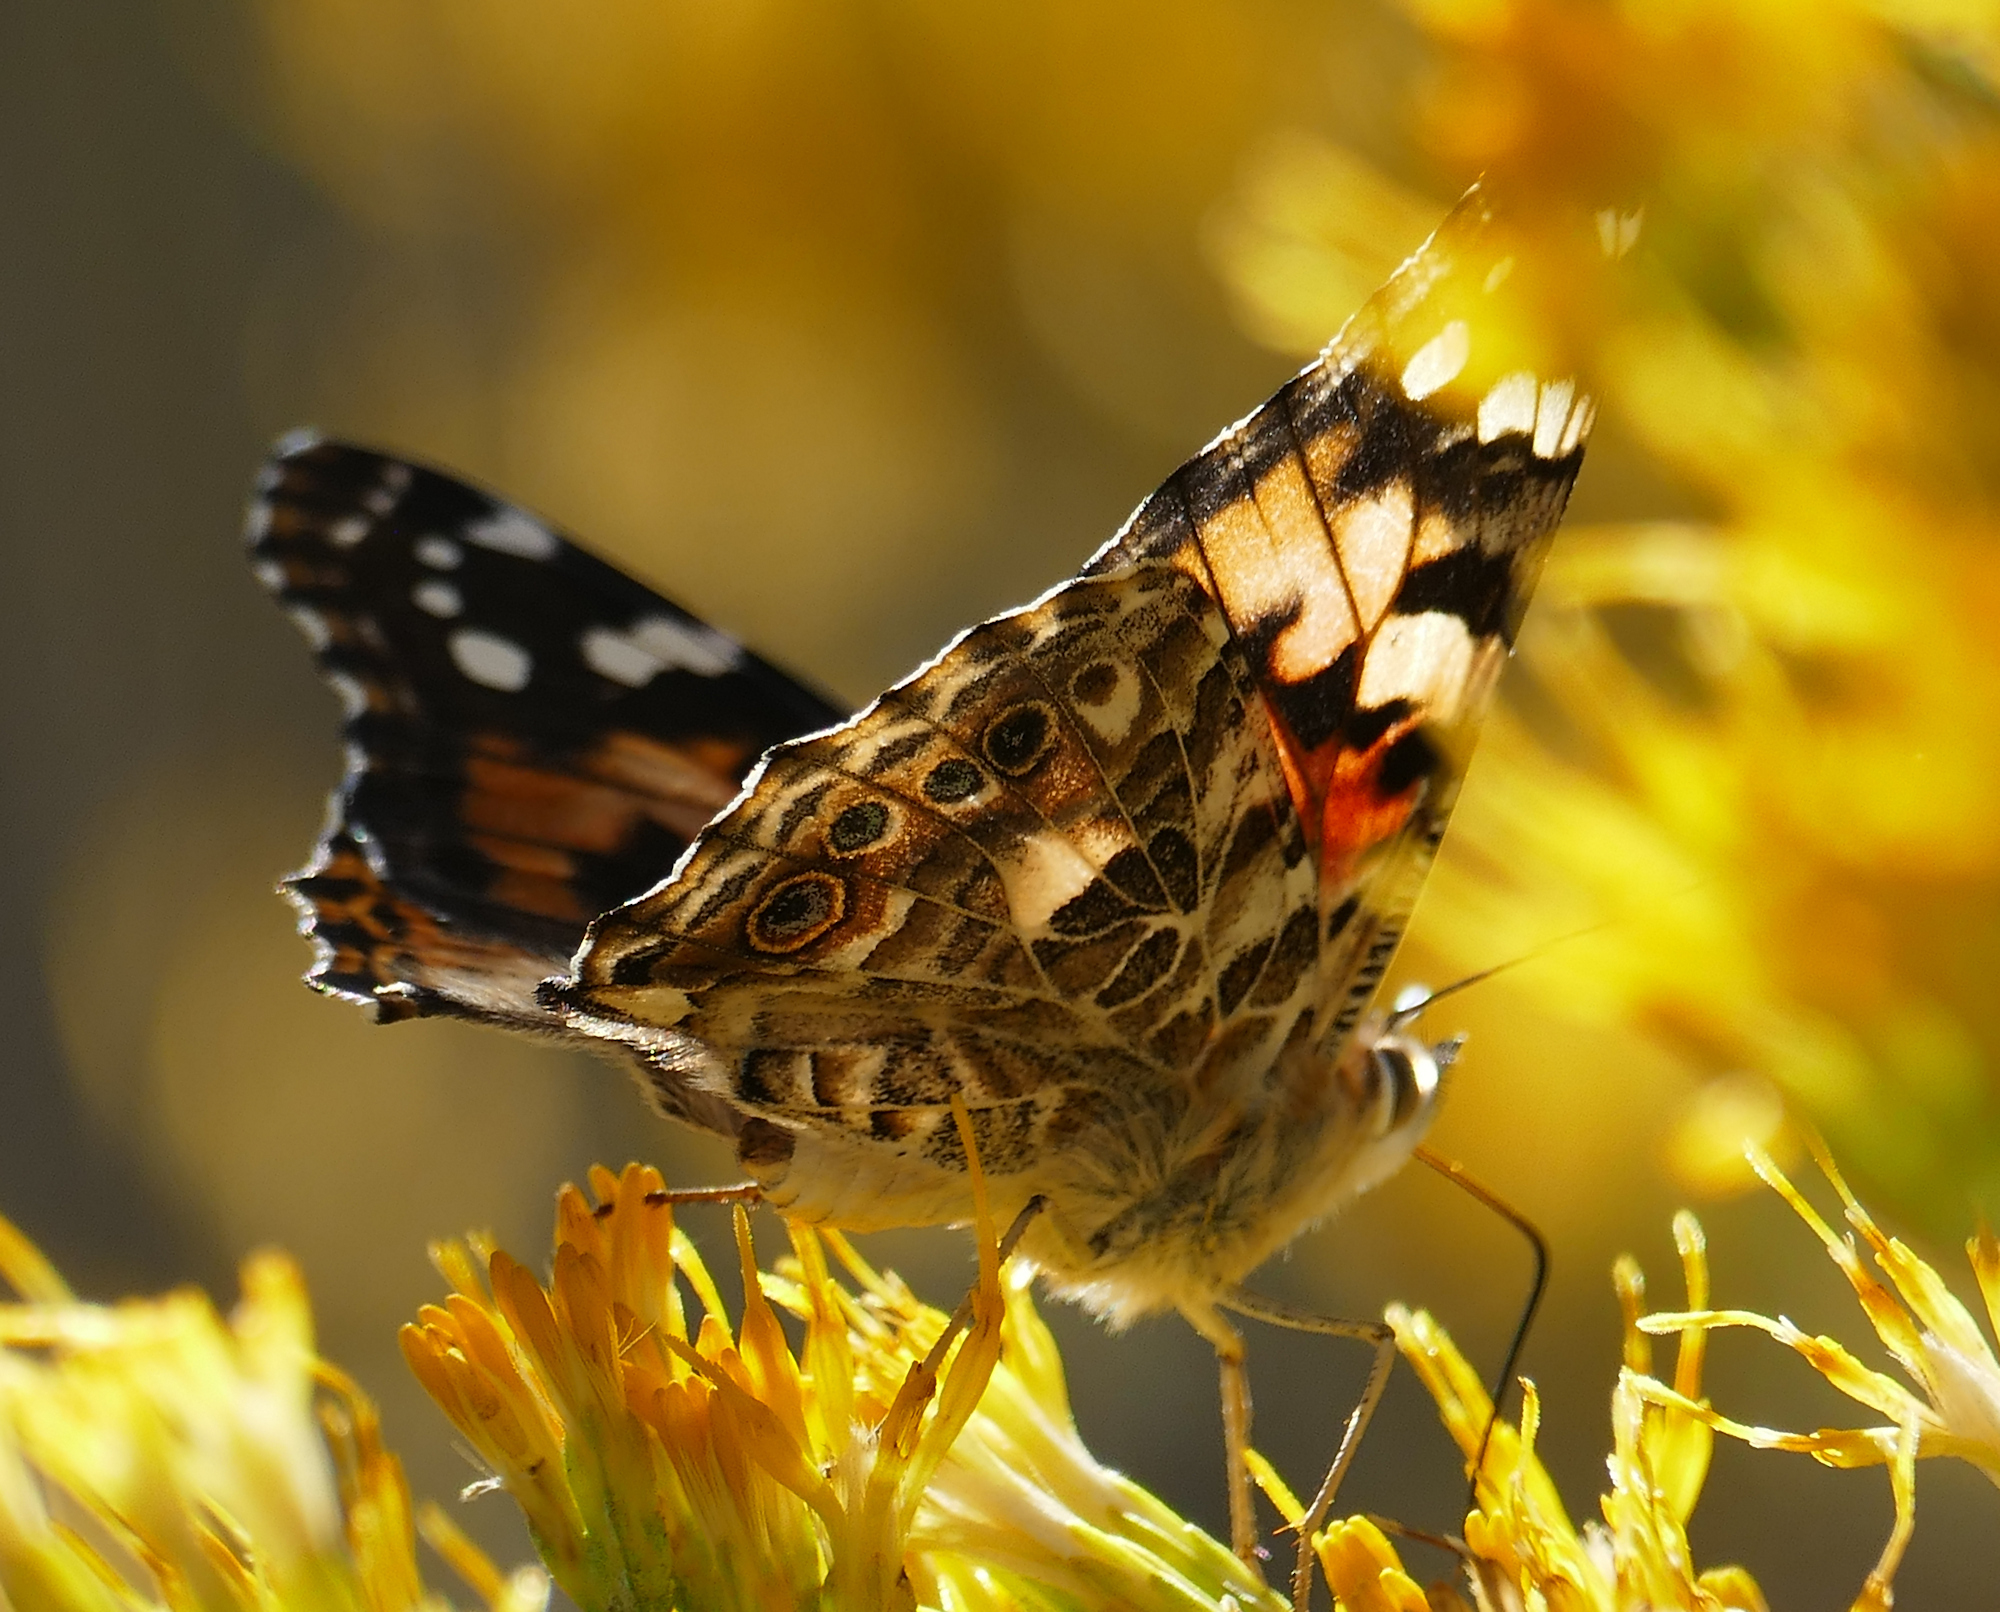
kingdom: Animalia
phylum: Arthropoda
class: Insecta
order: Lepidoptera
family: Nymphalidae
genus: Vanessa
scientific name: Vanessa cardui
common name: Painted lady
